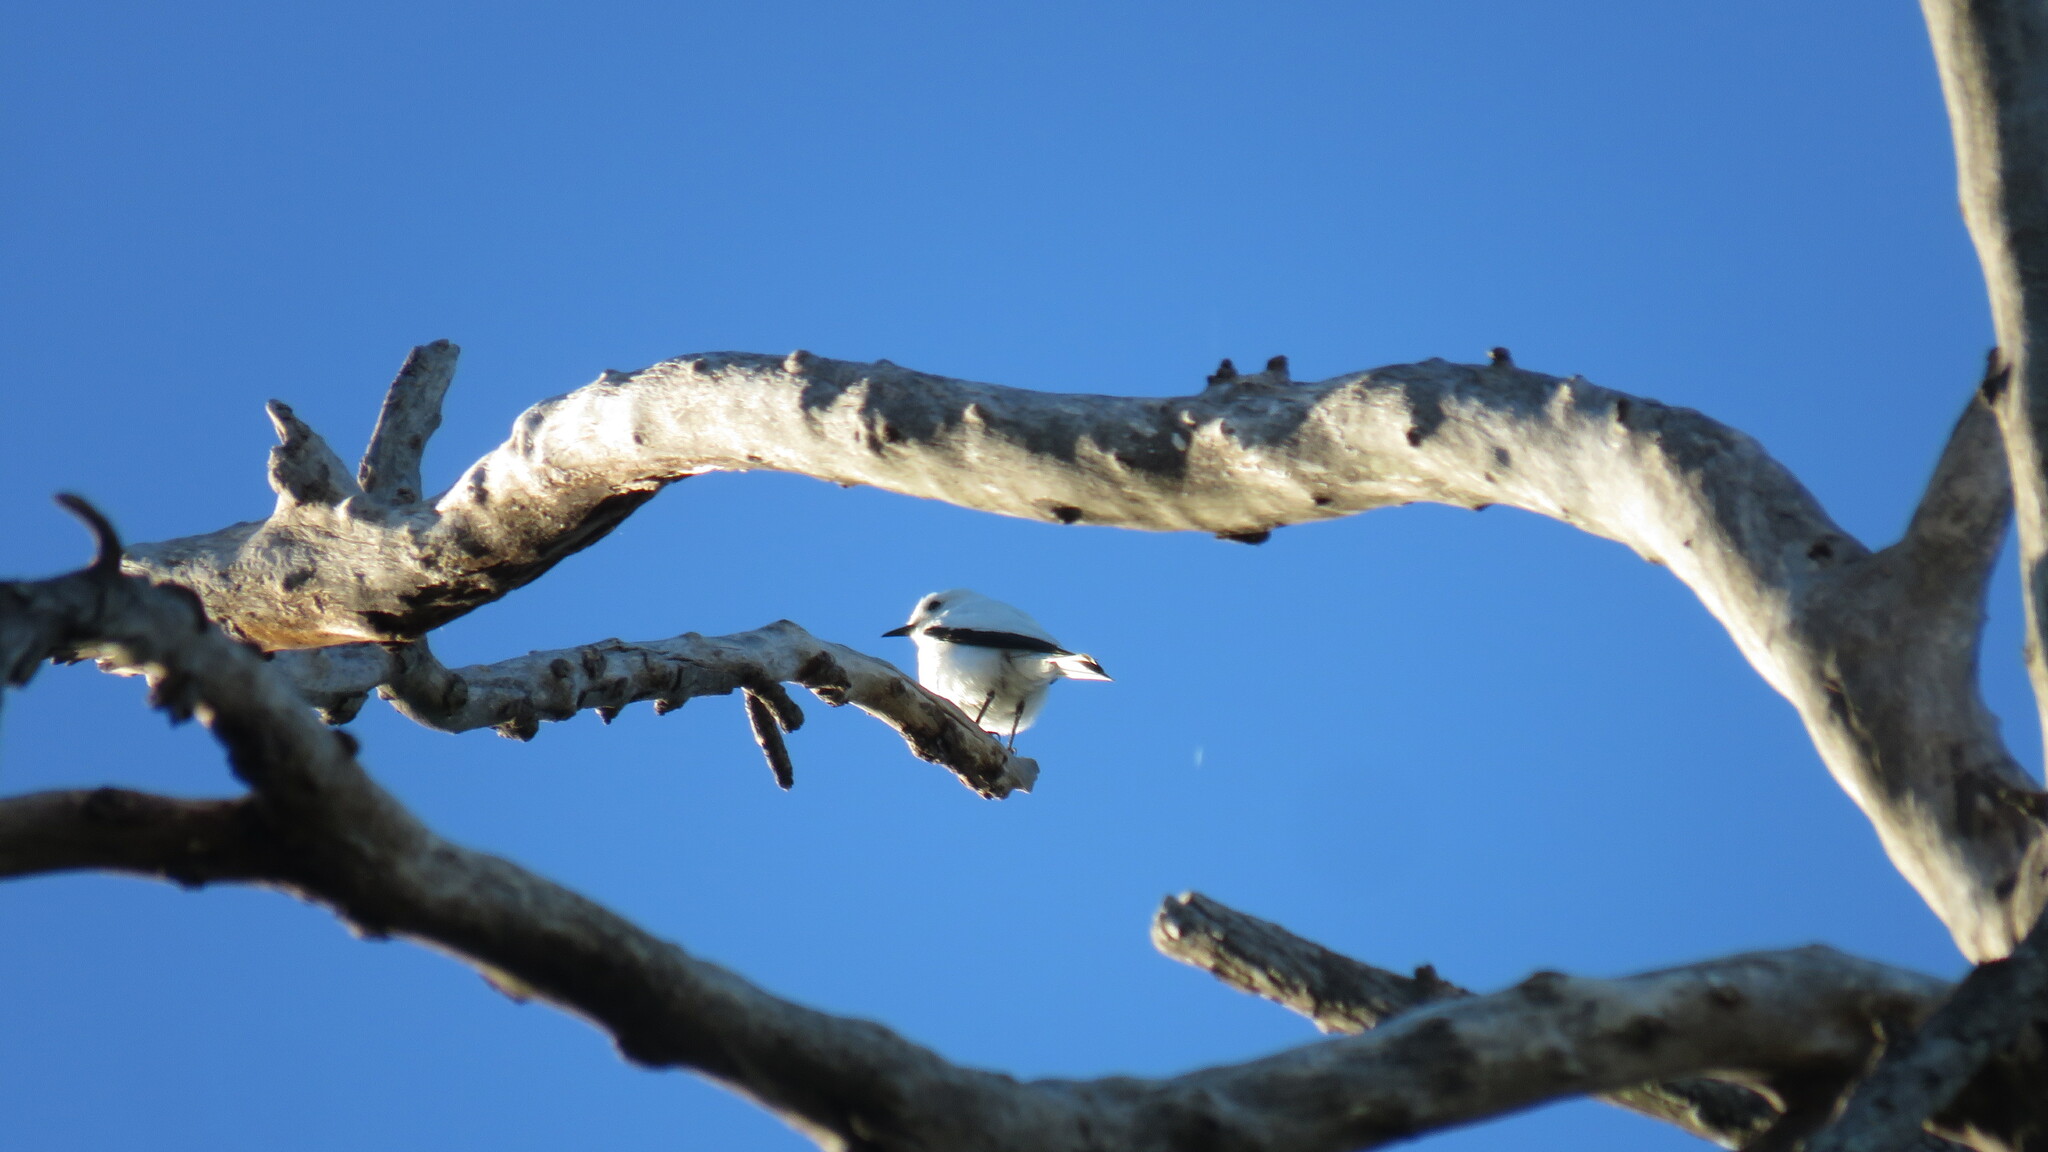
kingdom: Animalia
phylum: Chordata
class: Aves
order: Passeriformes
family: Tyrannidae
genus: Xolmis
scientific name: Xolmis irupero
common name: White monjita
